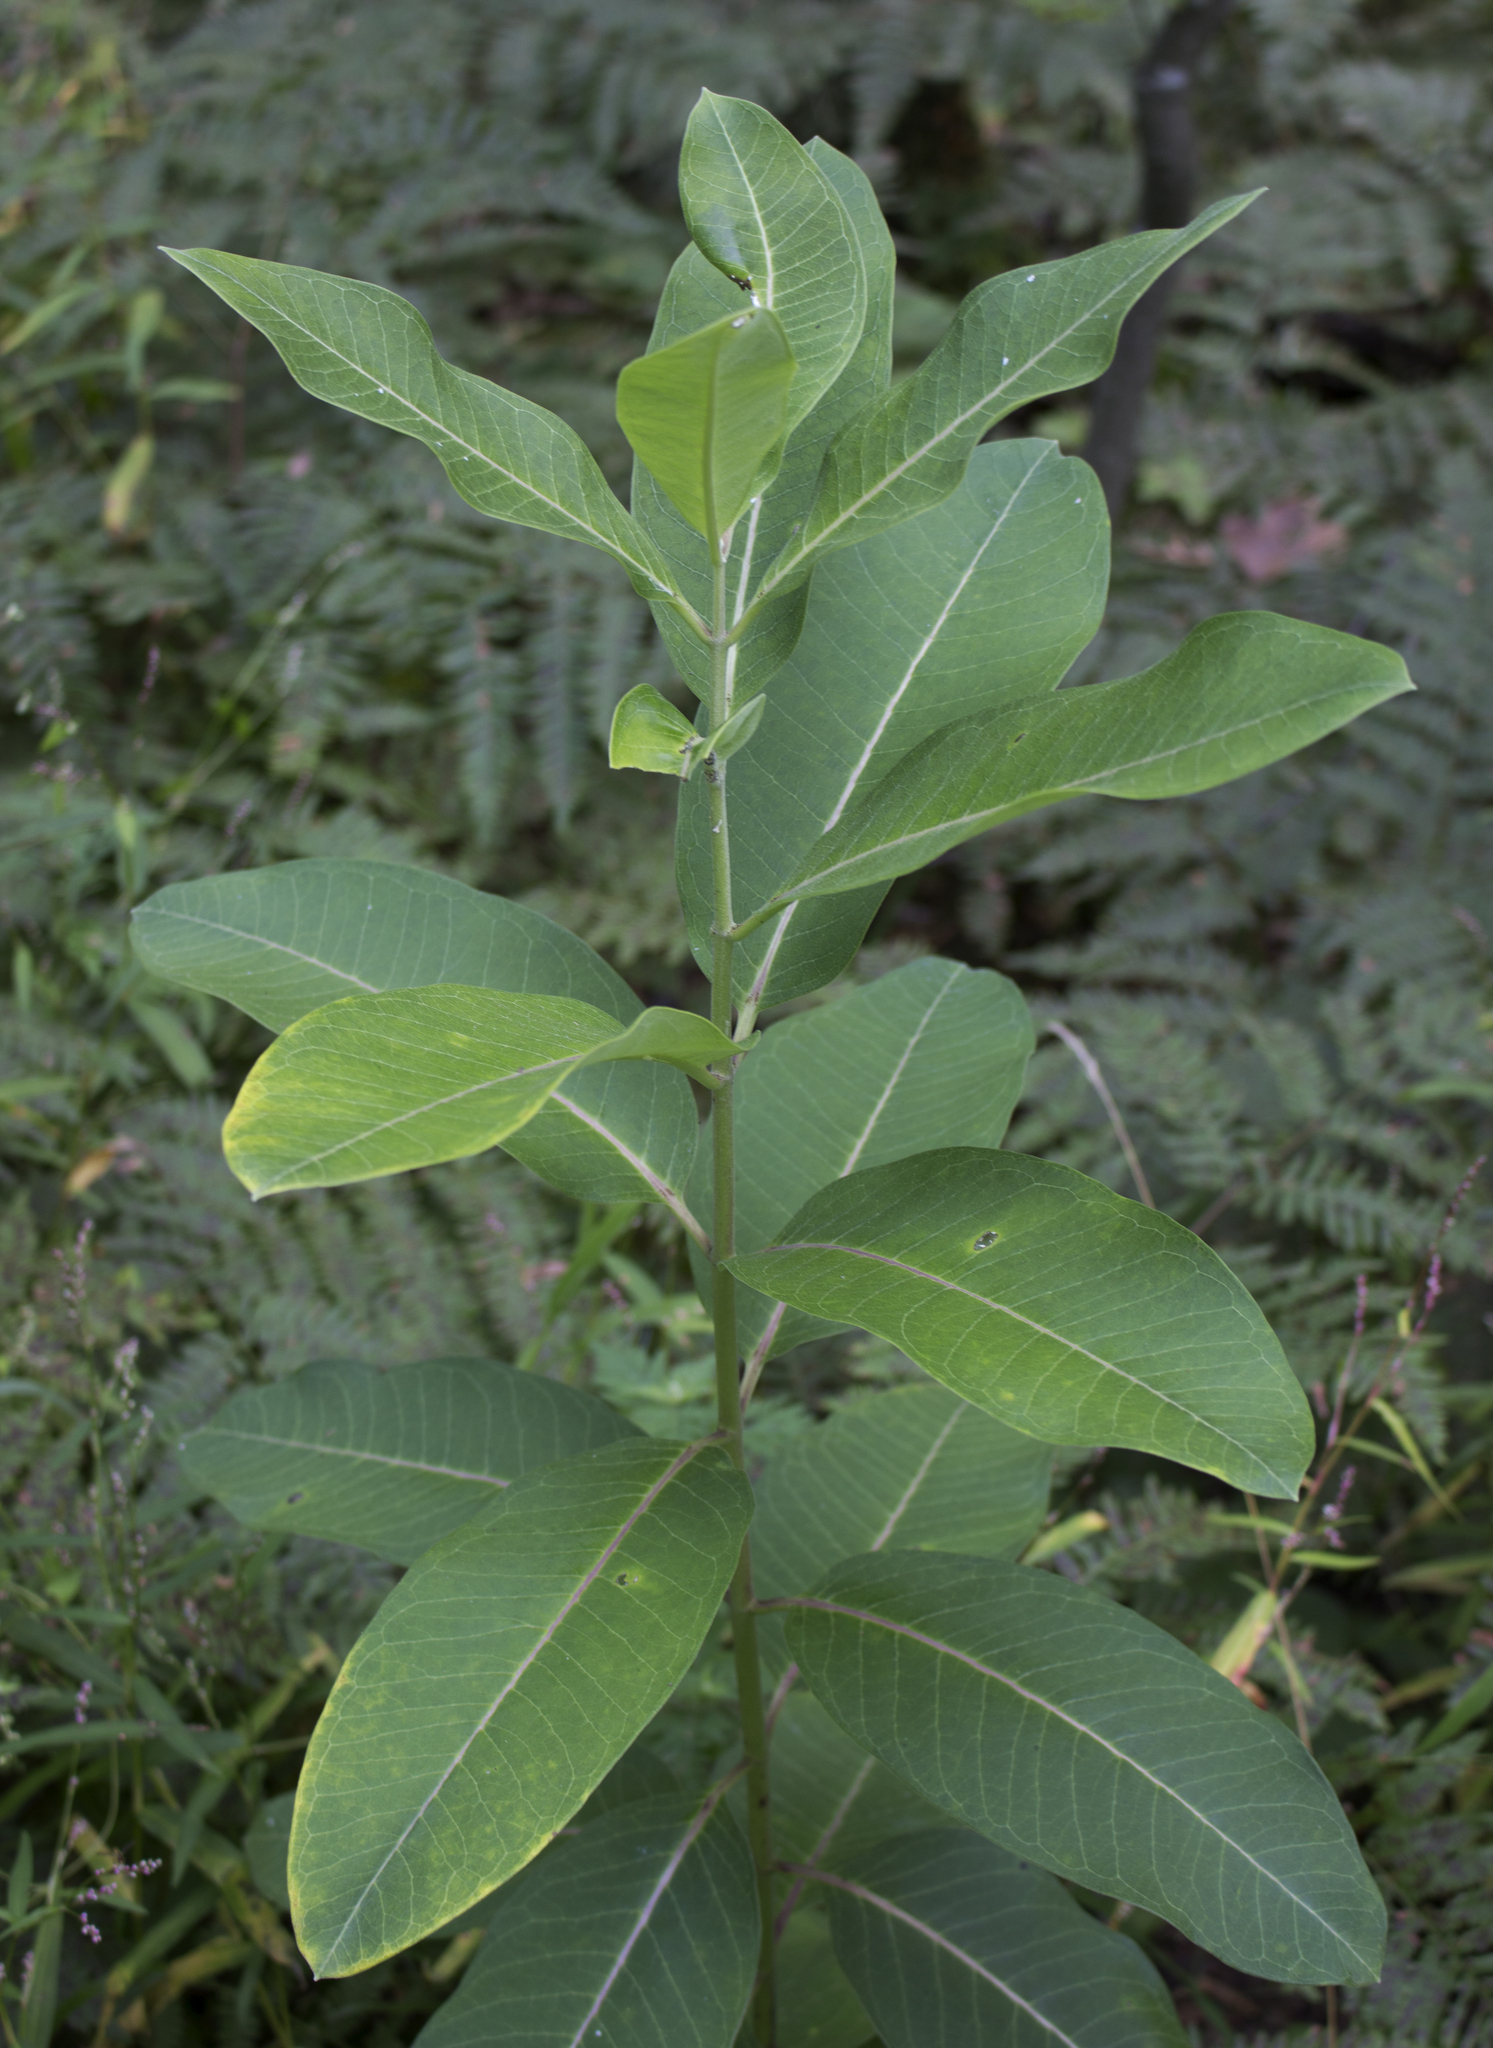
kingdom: Plantae
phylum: Tracheophyta
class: Magnoliopsida
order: Gentianales
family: Apocynaceae
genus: Asclepias
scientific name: Asclepias syriaca
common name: Common milkweed
